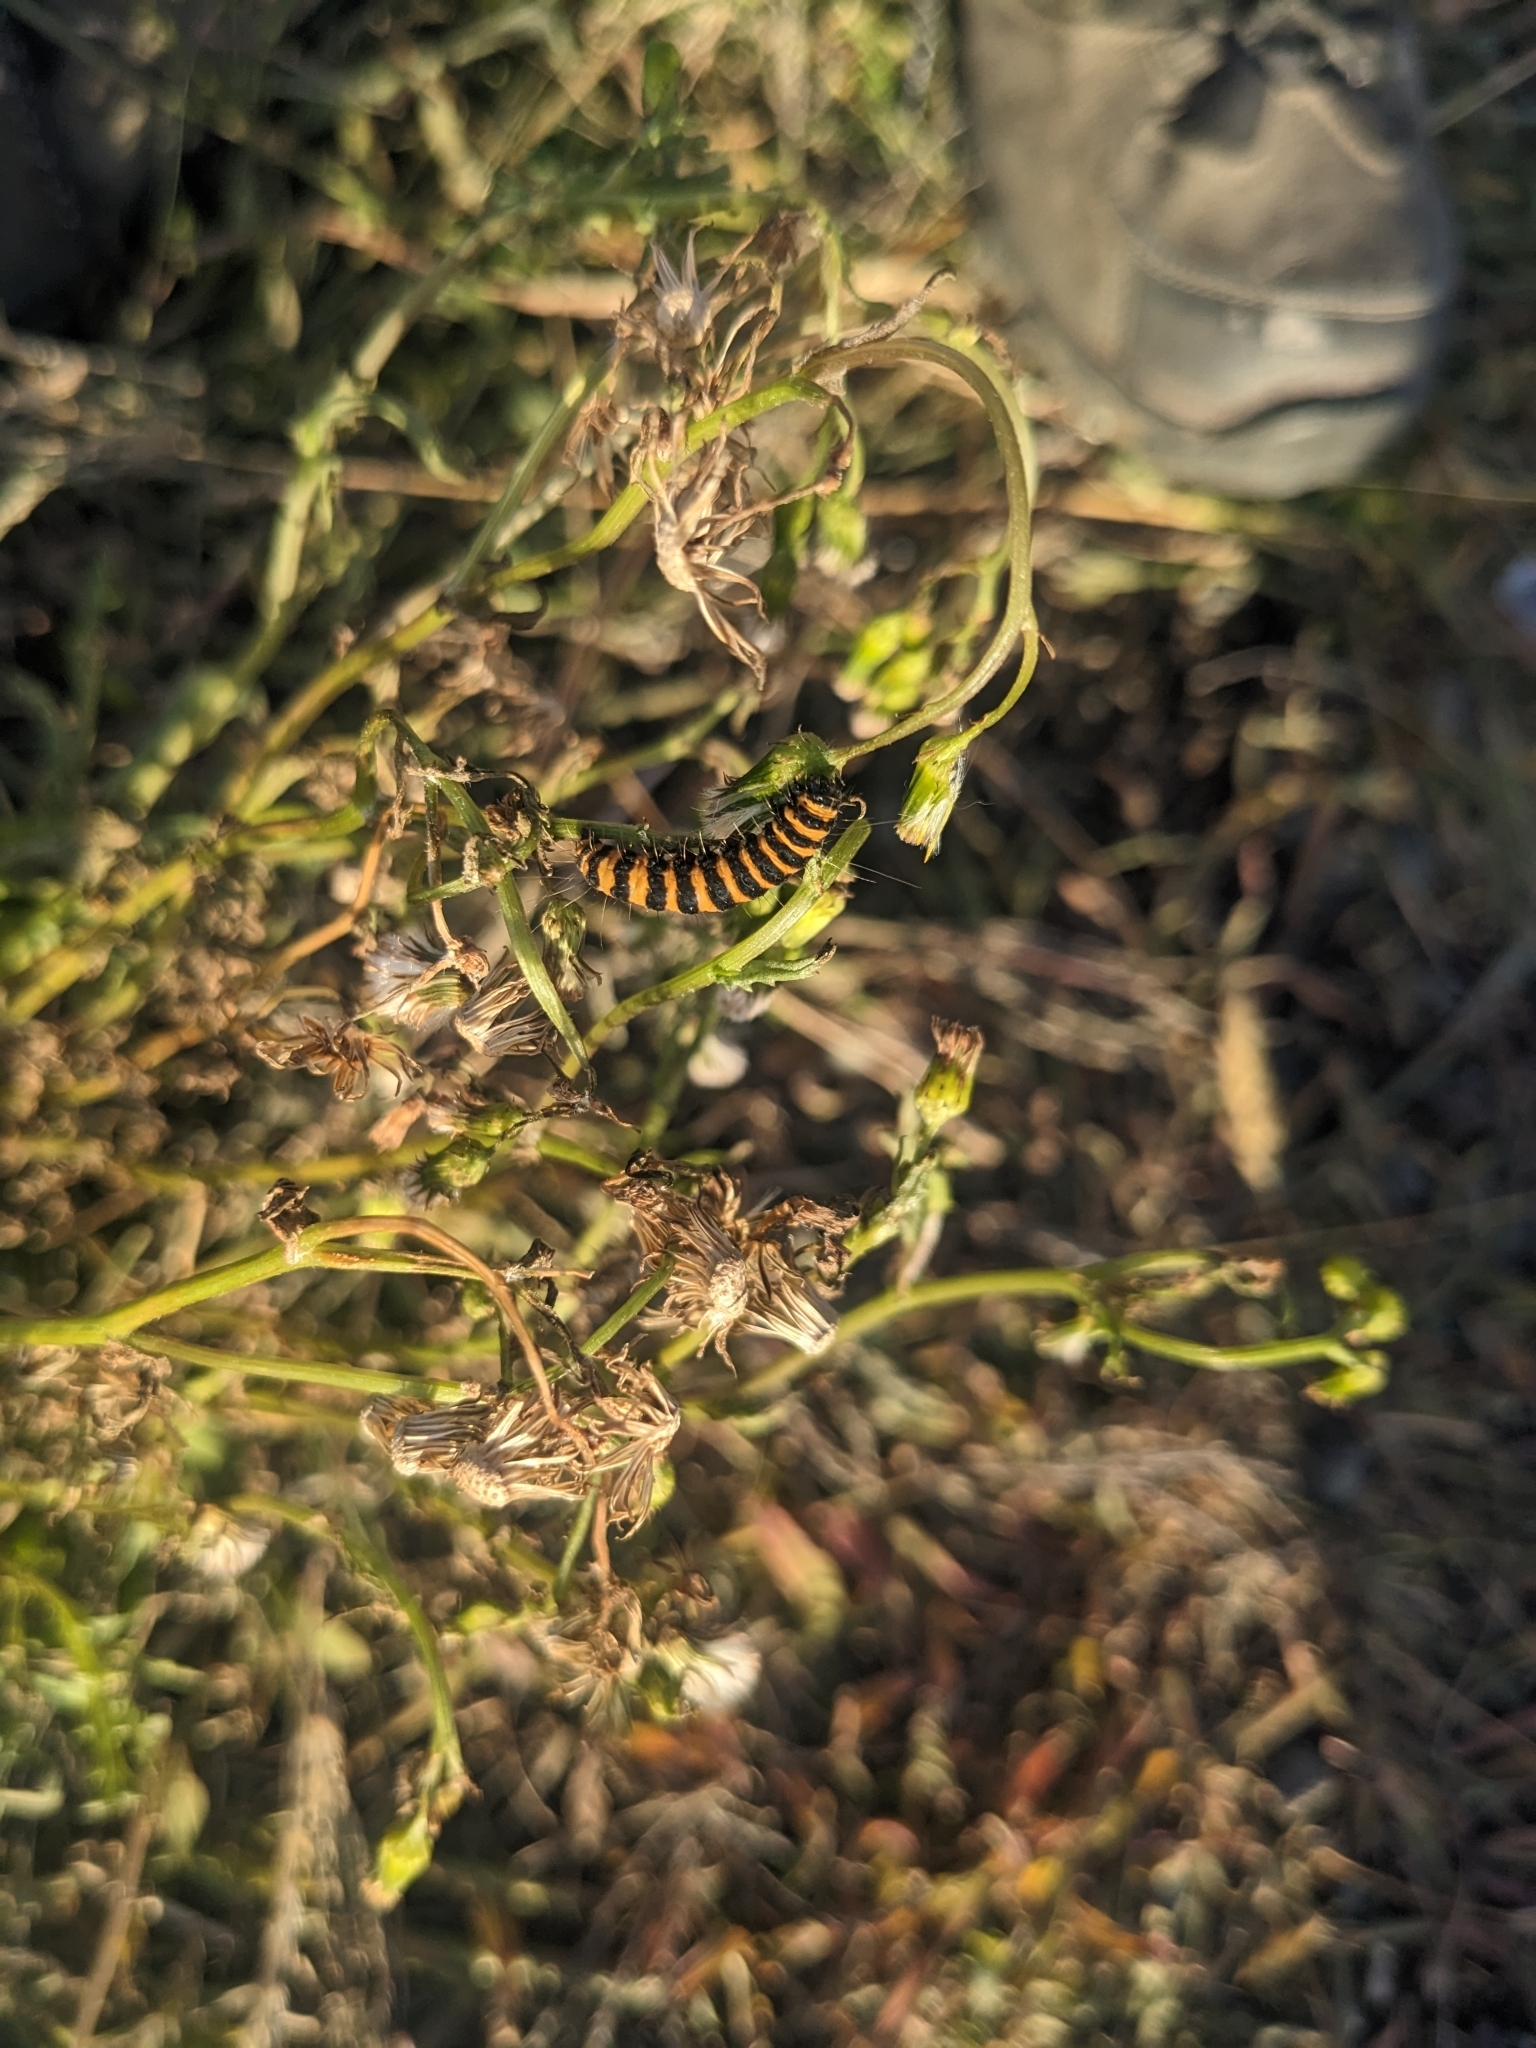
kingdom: Animalia
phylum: Arthropoda
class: Insecta
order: Lepidoptera
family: Erebidae
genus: Tyria
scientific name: Tyria jacobaeae
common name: Cinnabar
